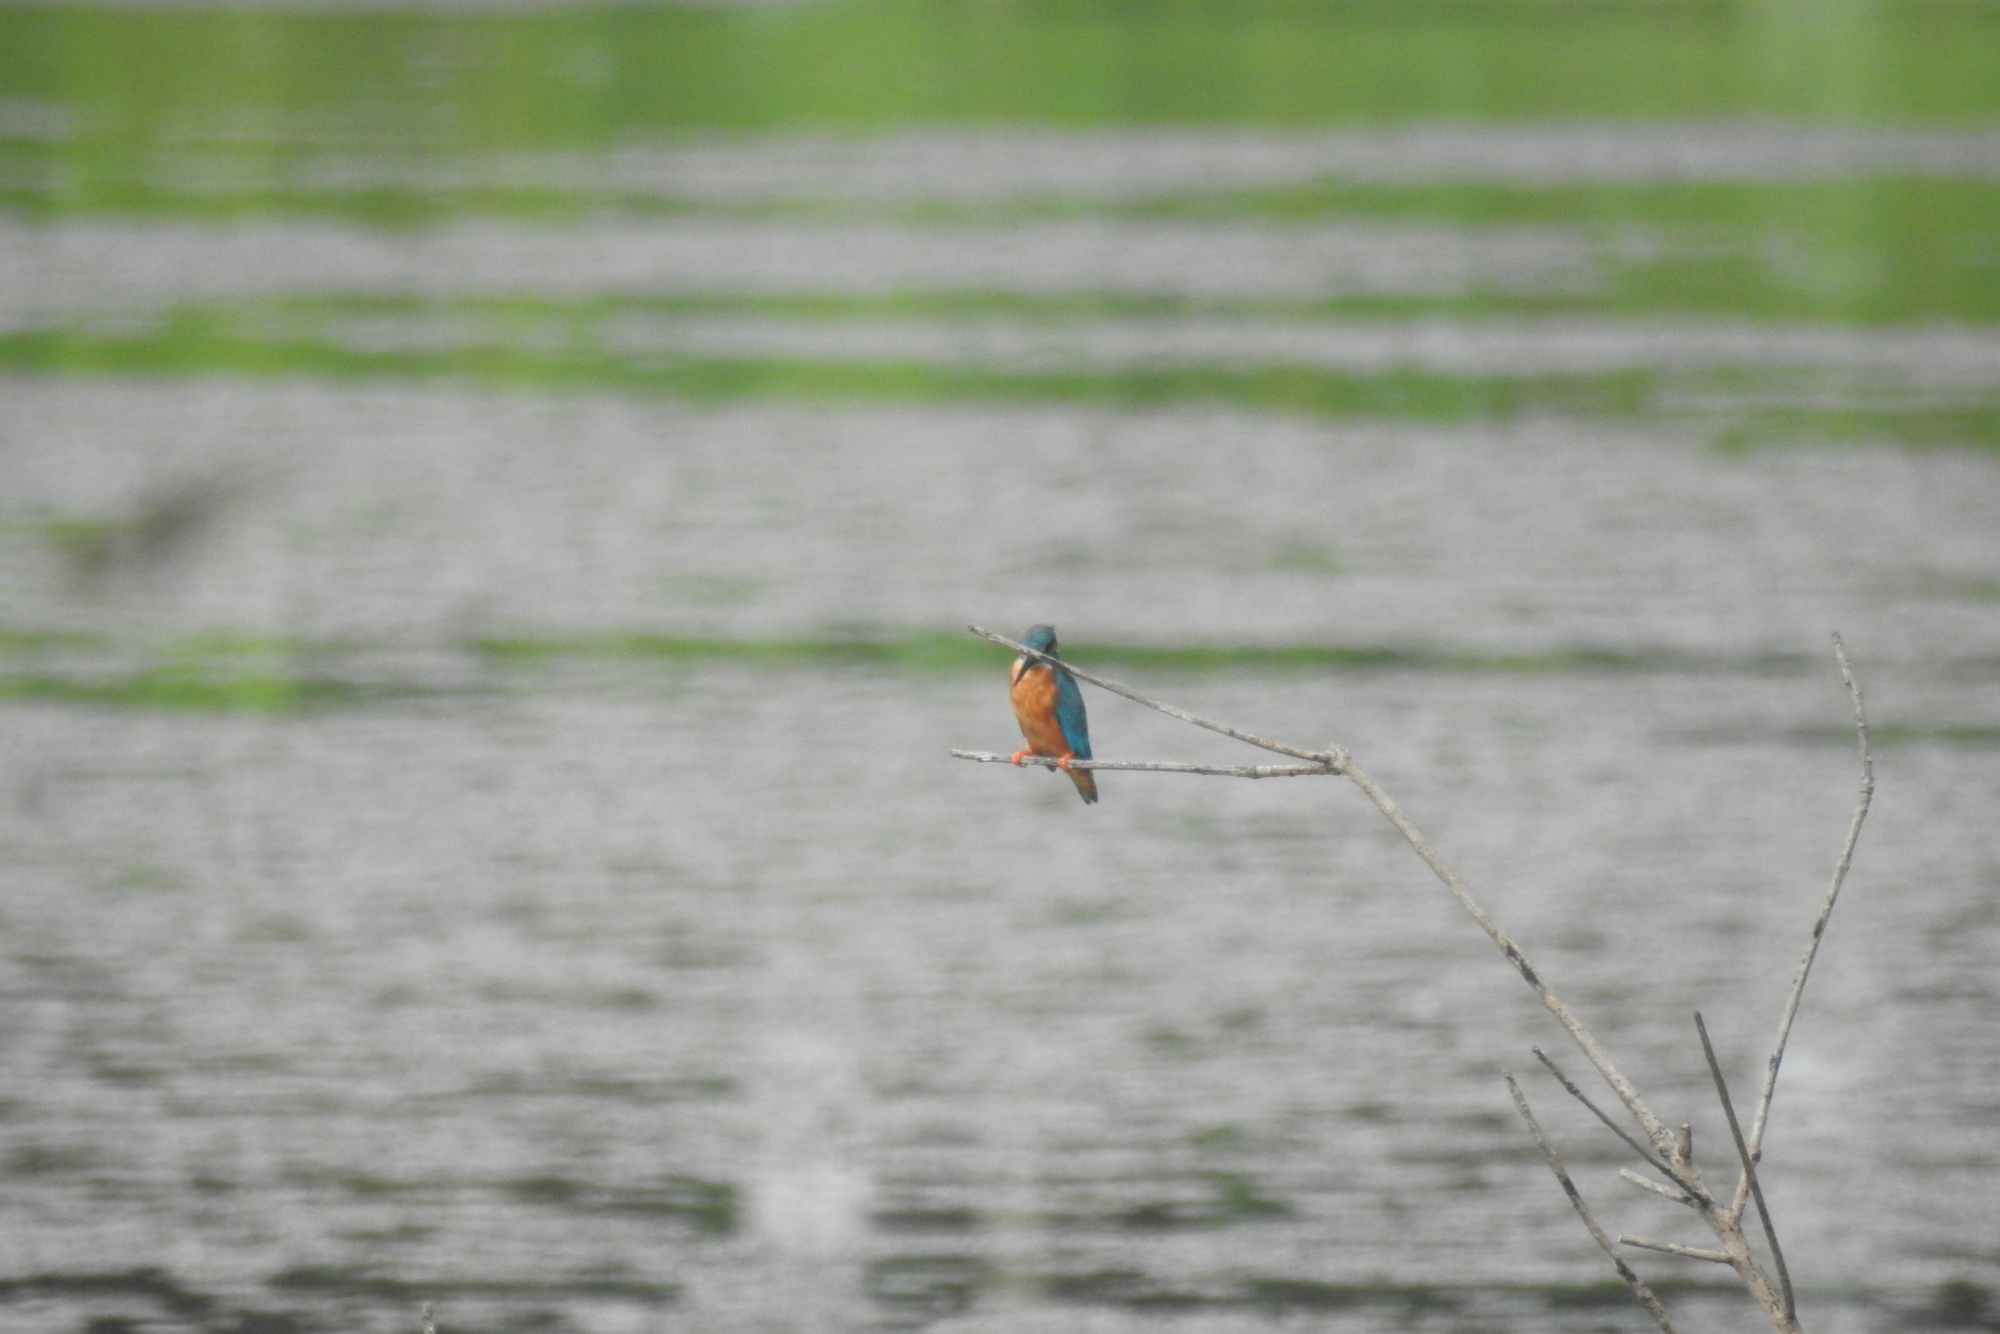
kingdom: Animalia
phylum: Chordata
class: Aves
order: Coraciiformes
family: Alcedinidae
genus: Alcedo
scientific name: Alcedo atthis
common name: Common kingfisher
